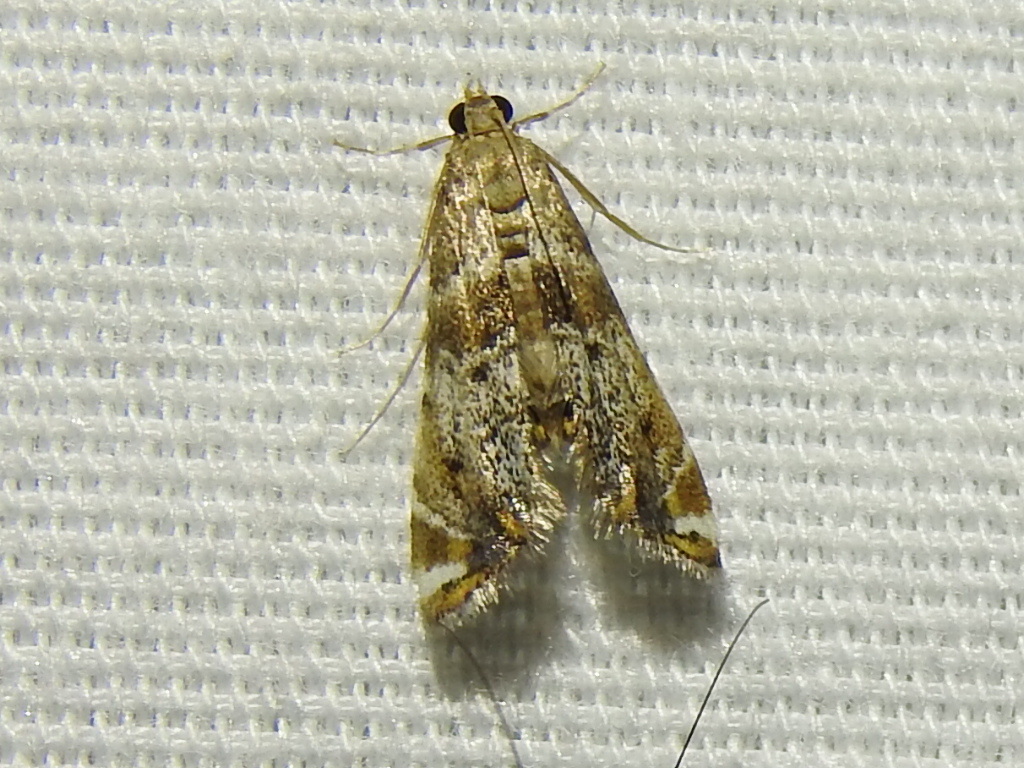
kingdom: Animalia
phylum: Arthropoda
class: Insecta
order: Lepidoptera
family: Crambidae
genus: Petrophila
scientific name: Petrophila fulicalis
